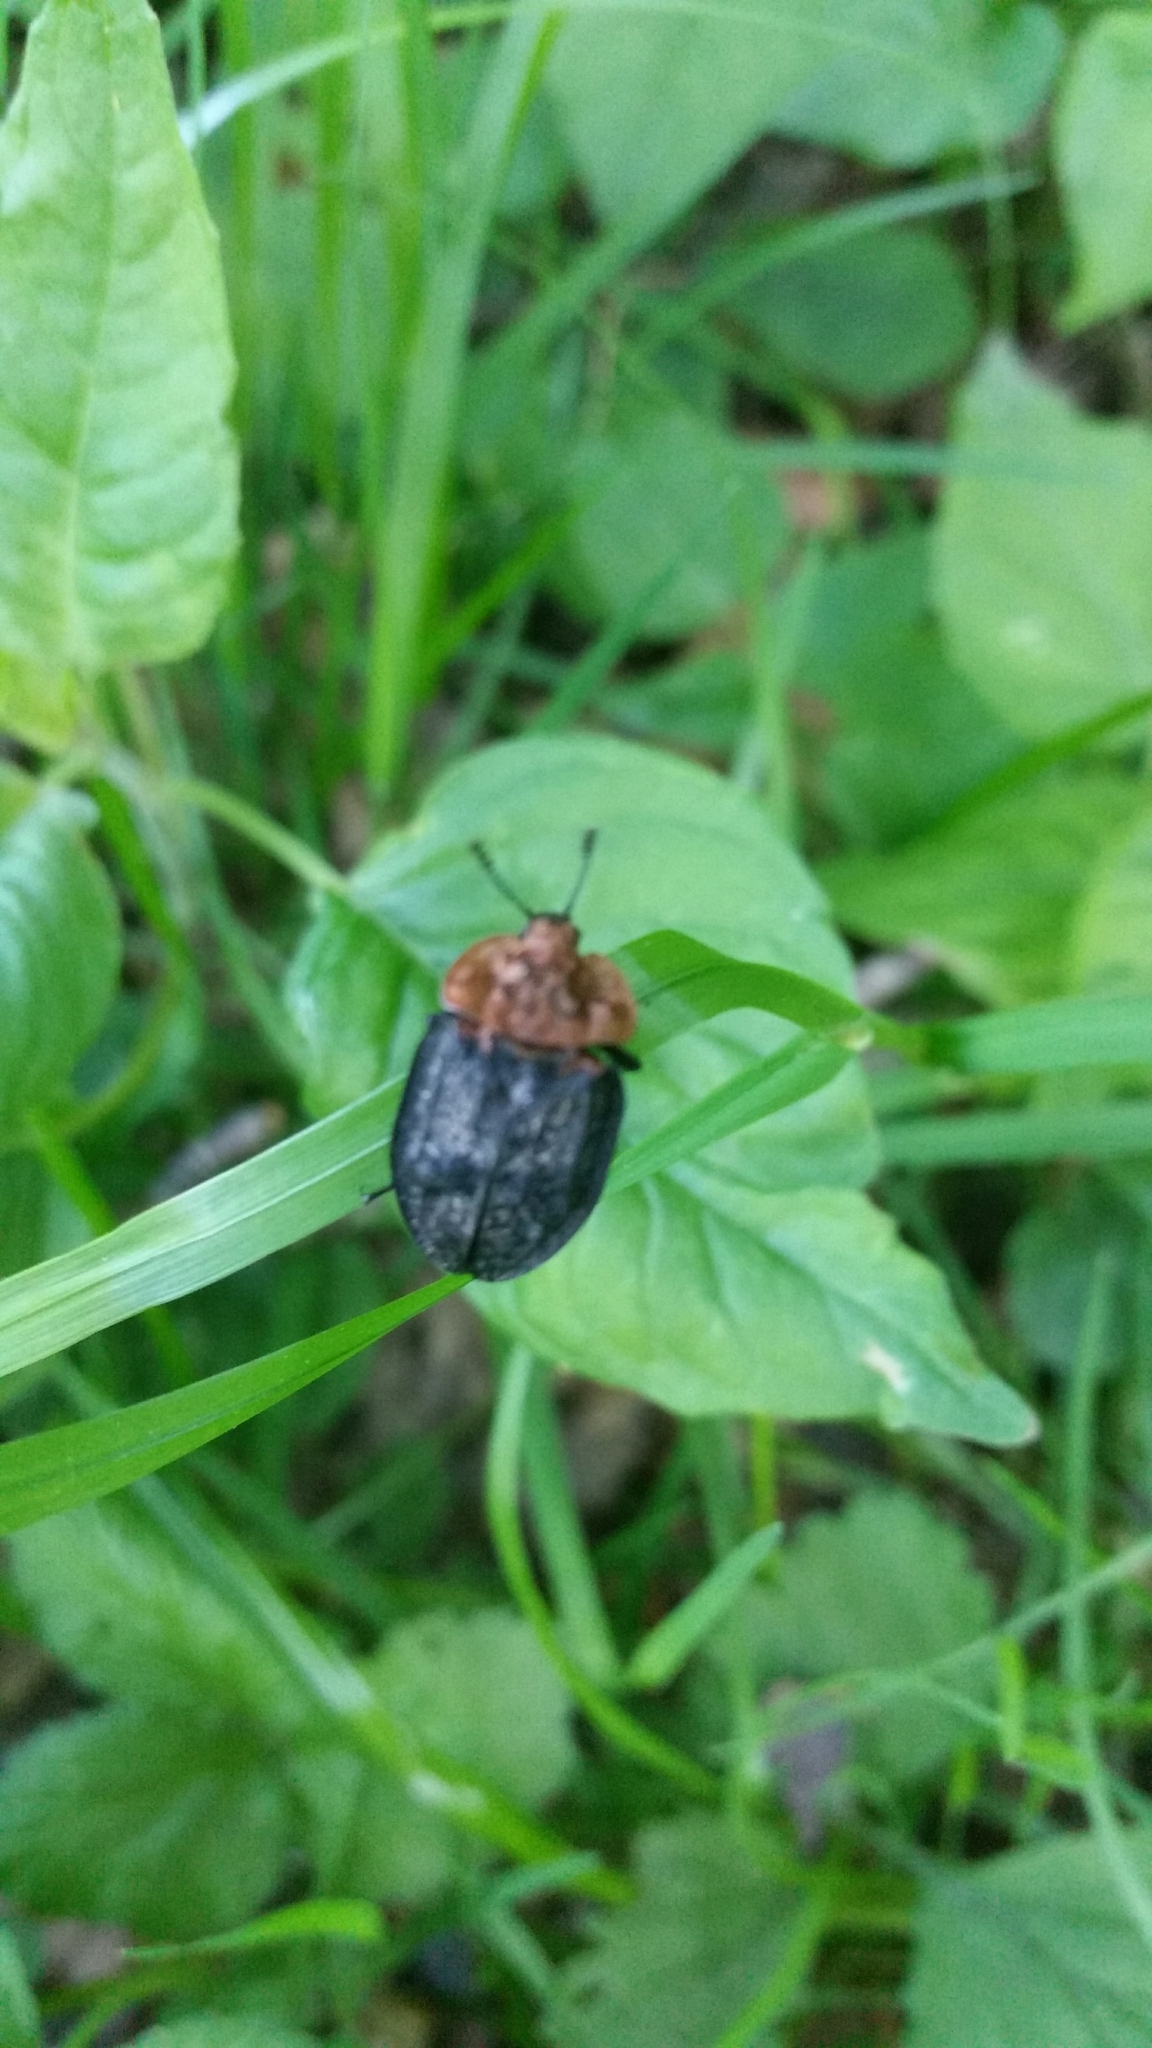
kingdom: Animalia
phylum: Arthropoda
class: Insecta
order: Coleoptera
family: Staphylinidae
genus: Oiceoptoma
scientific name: Oiceoptoma thoracicum
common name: Red-breasted carrion beetle
